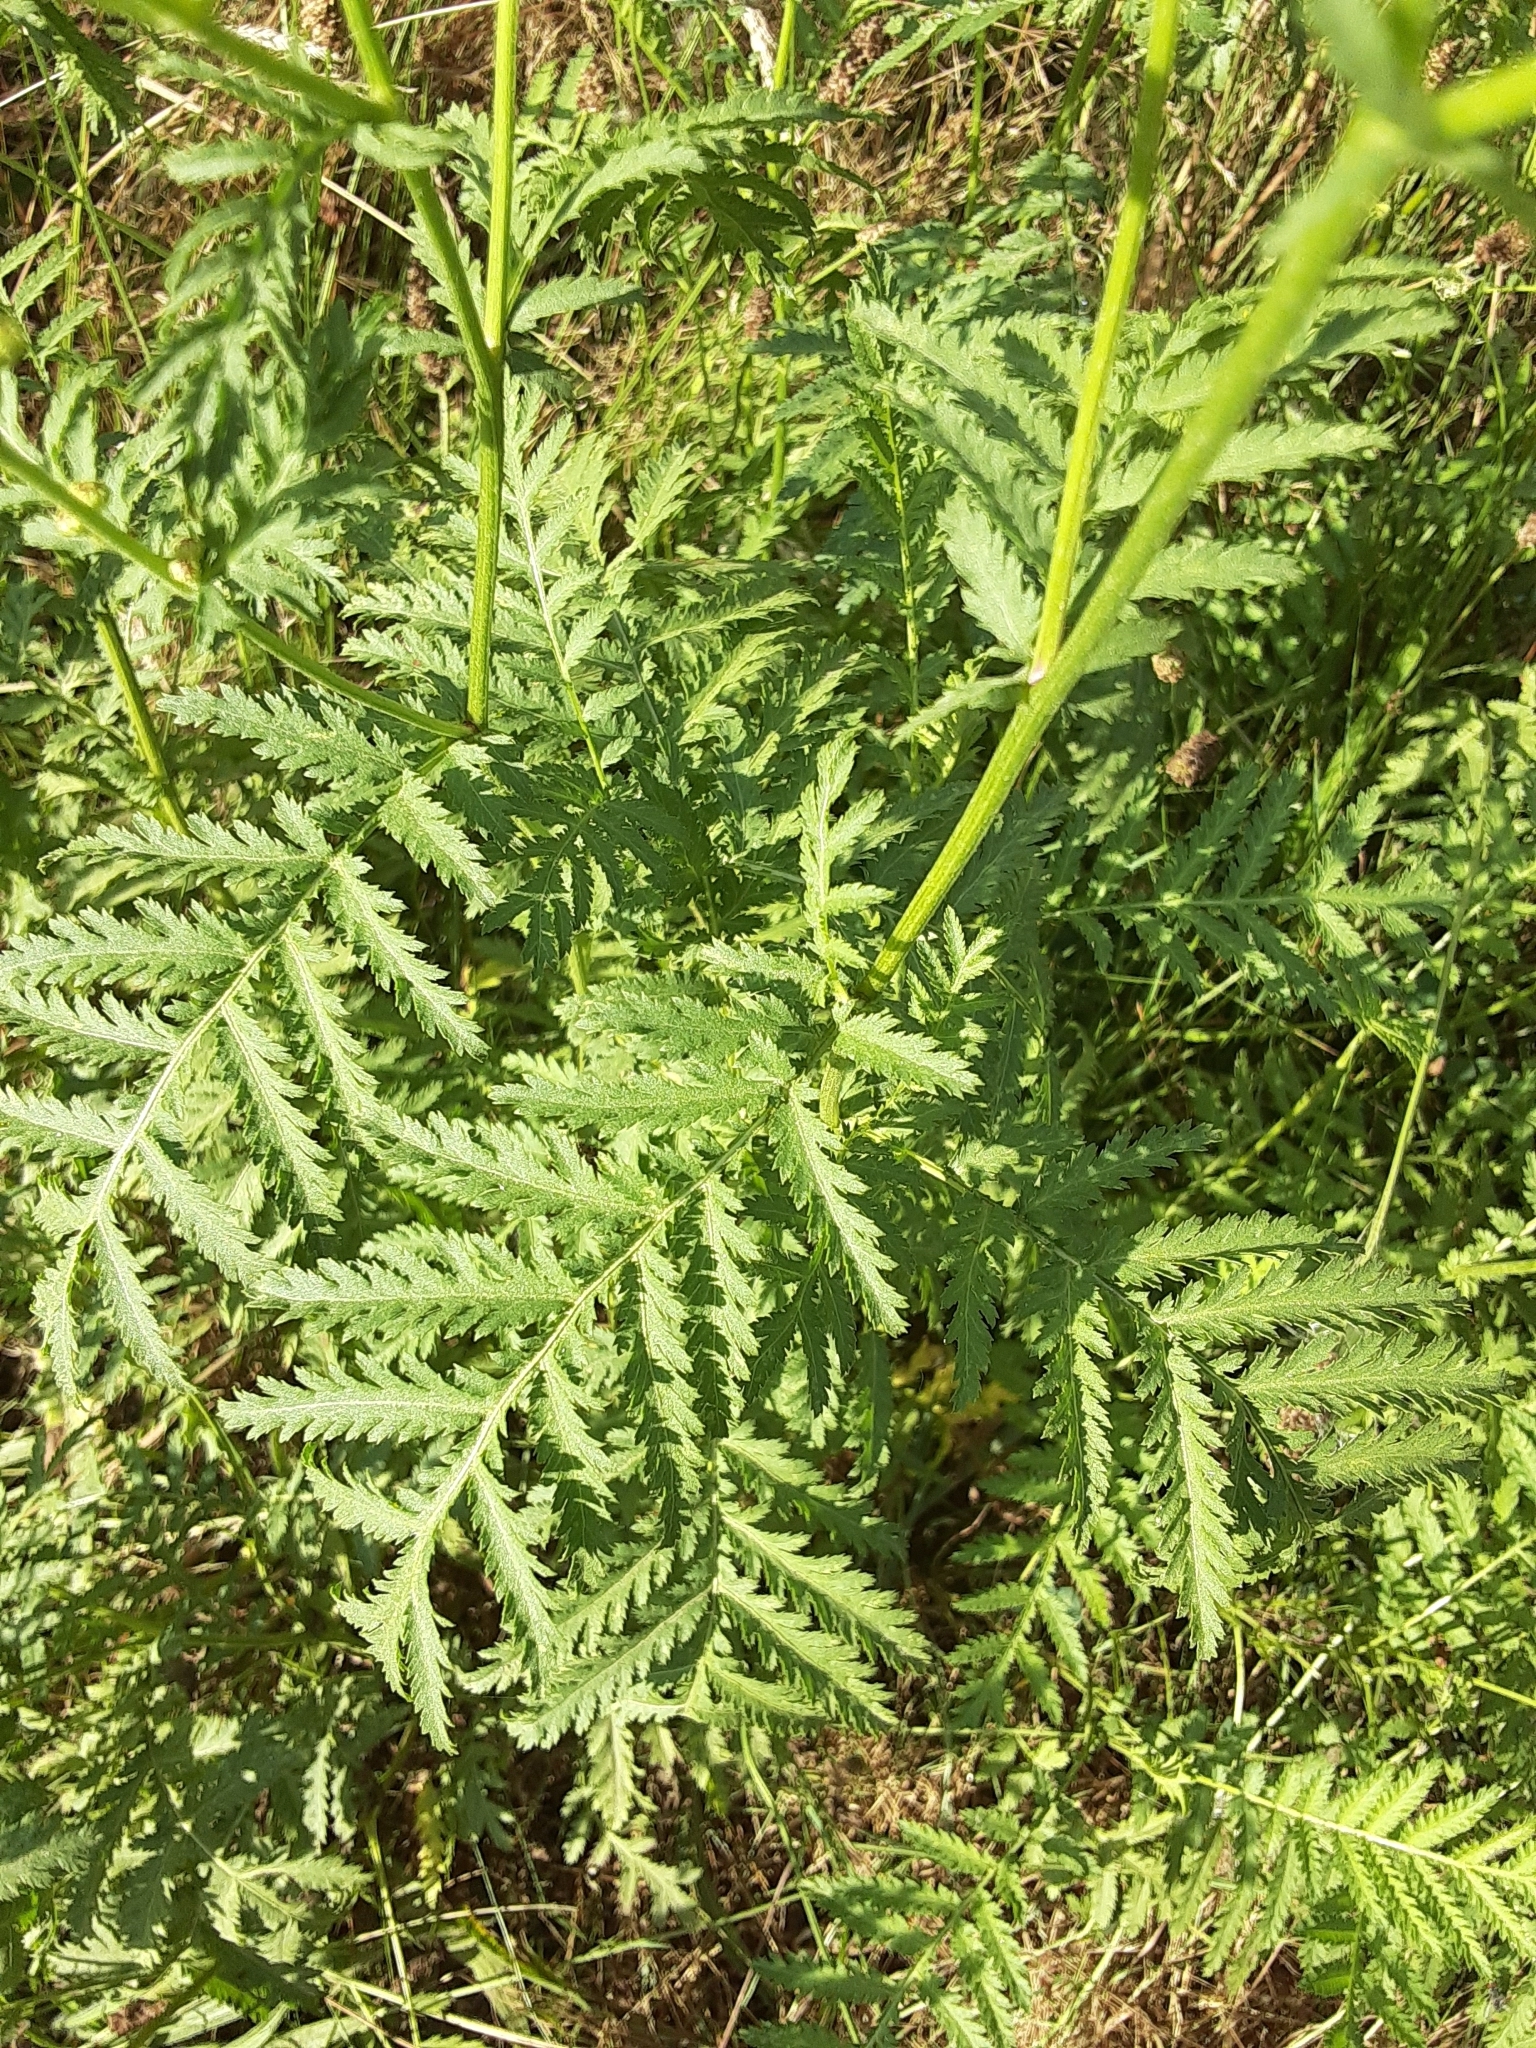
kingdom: Plantae
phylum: Tracheophyta
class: Magnoliopsida
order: Asterales
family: Asteraceae
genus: Tanacetum
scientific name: Tanacetum vulgare
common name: Common tansy
